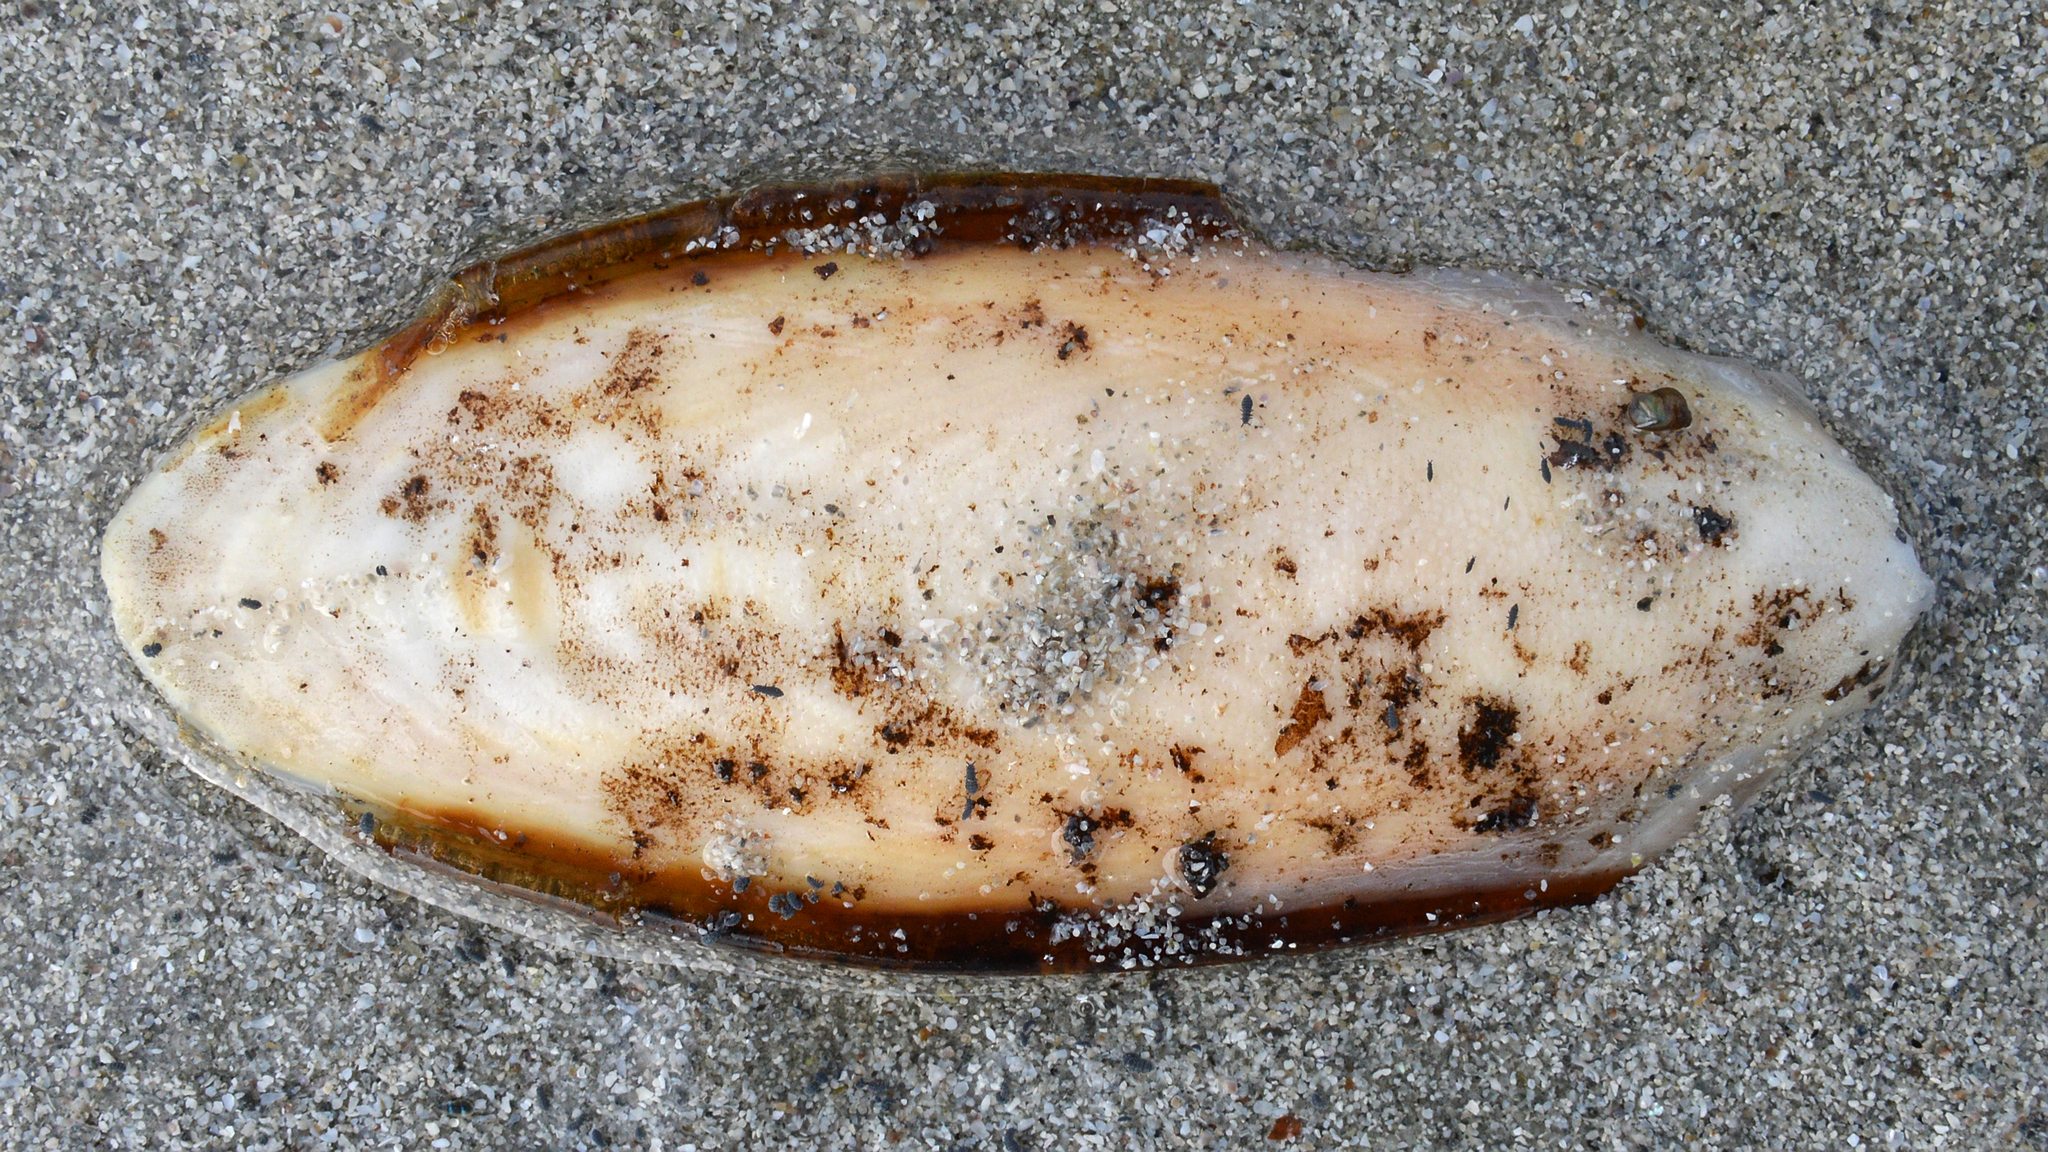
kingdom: Animalia
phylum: Mollusca
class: Cephalopoda
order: Sepiida
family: Sepiidae
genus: Sepia
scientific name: Sepia officinalis
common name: Common cuttlefish
